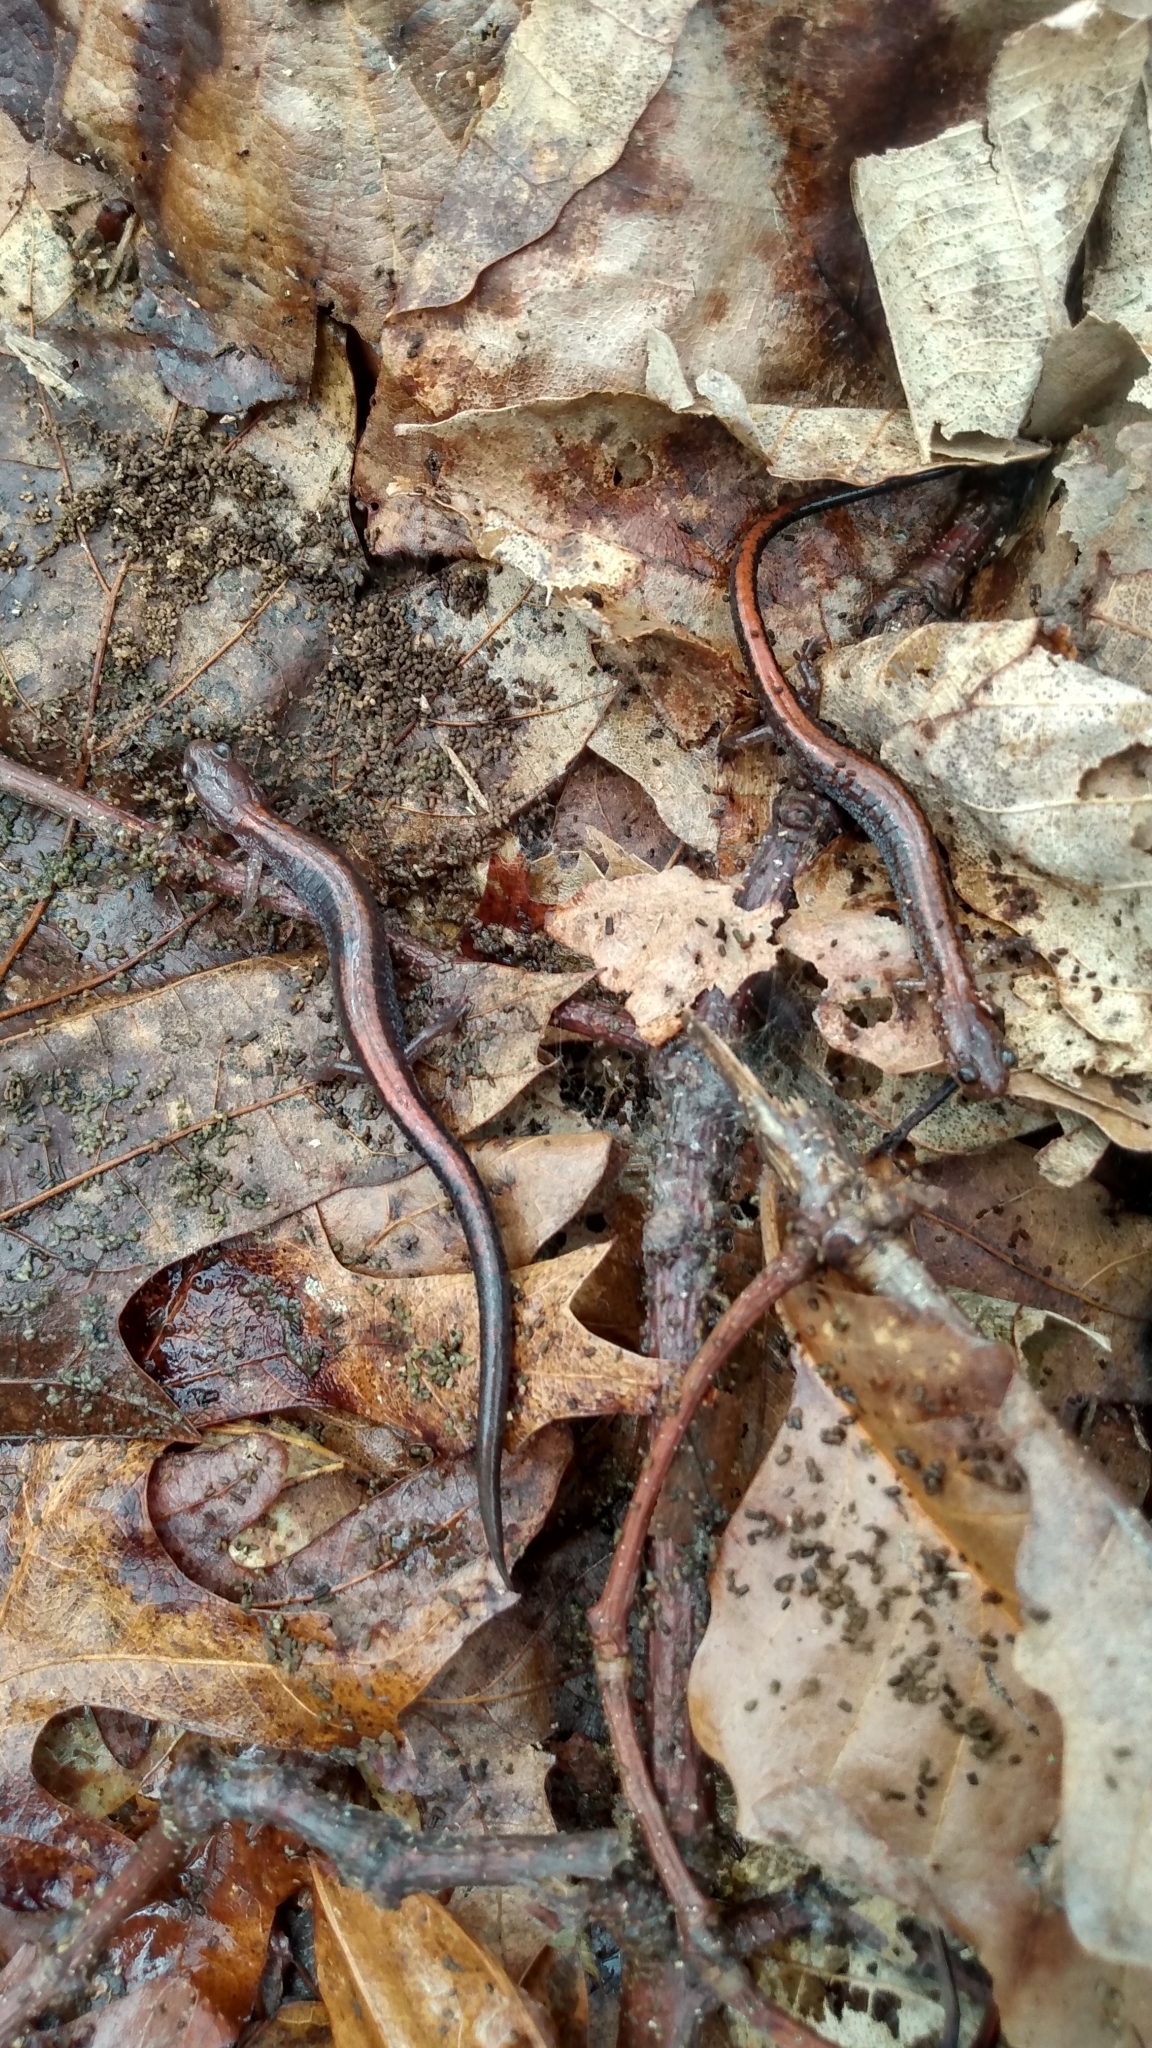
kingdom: Animalia
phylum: Chordata
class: Amphibia
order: Caudata
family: Plethodontidae
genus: Plethodon
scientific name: Plethodon cinereus
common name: Redback salamander
